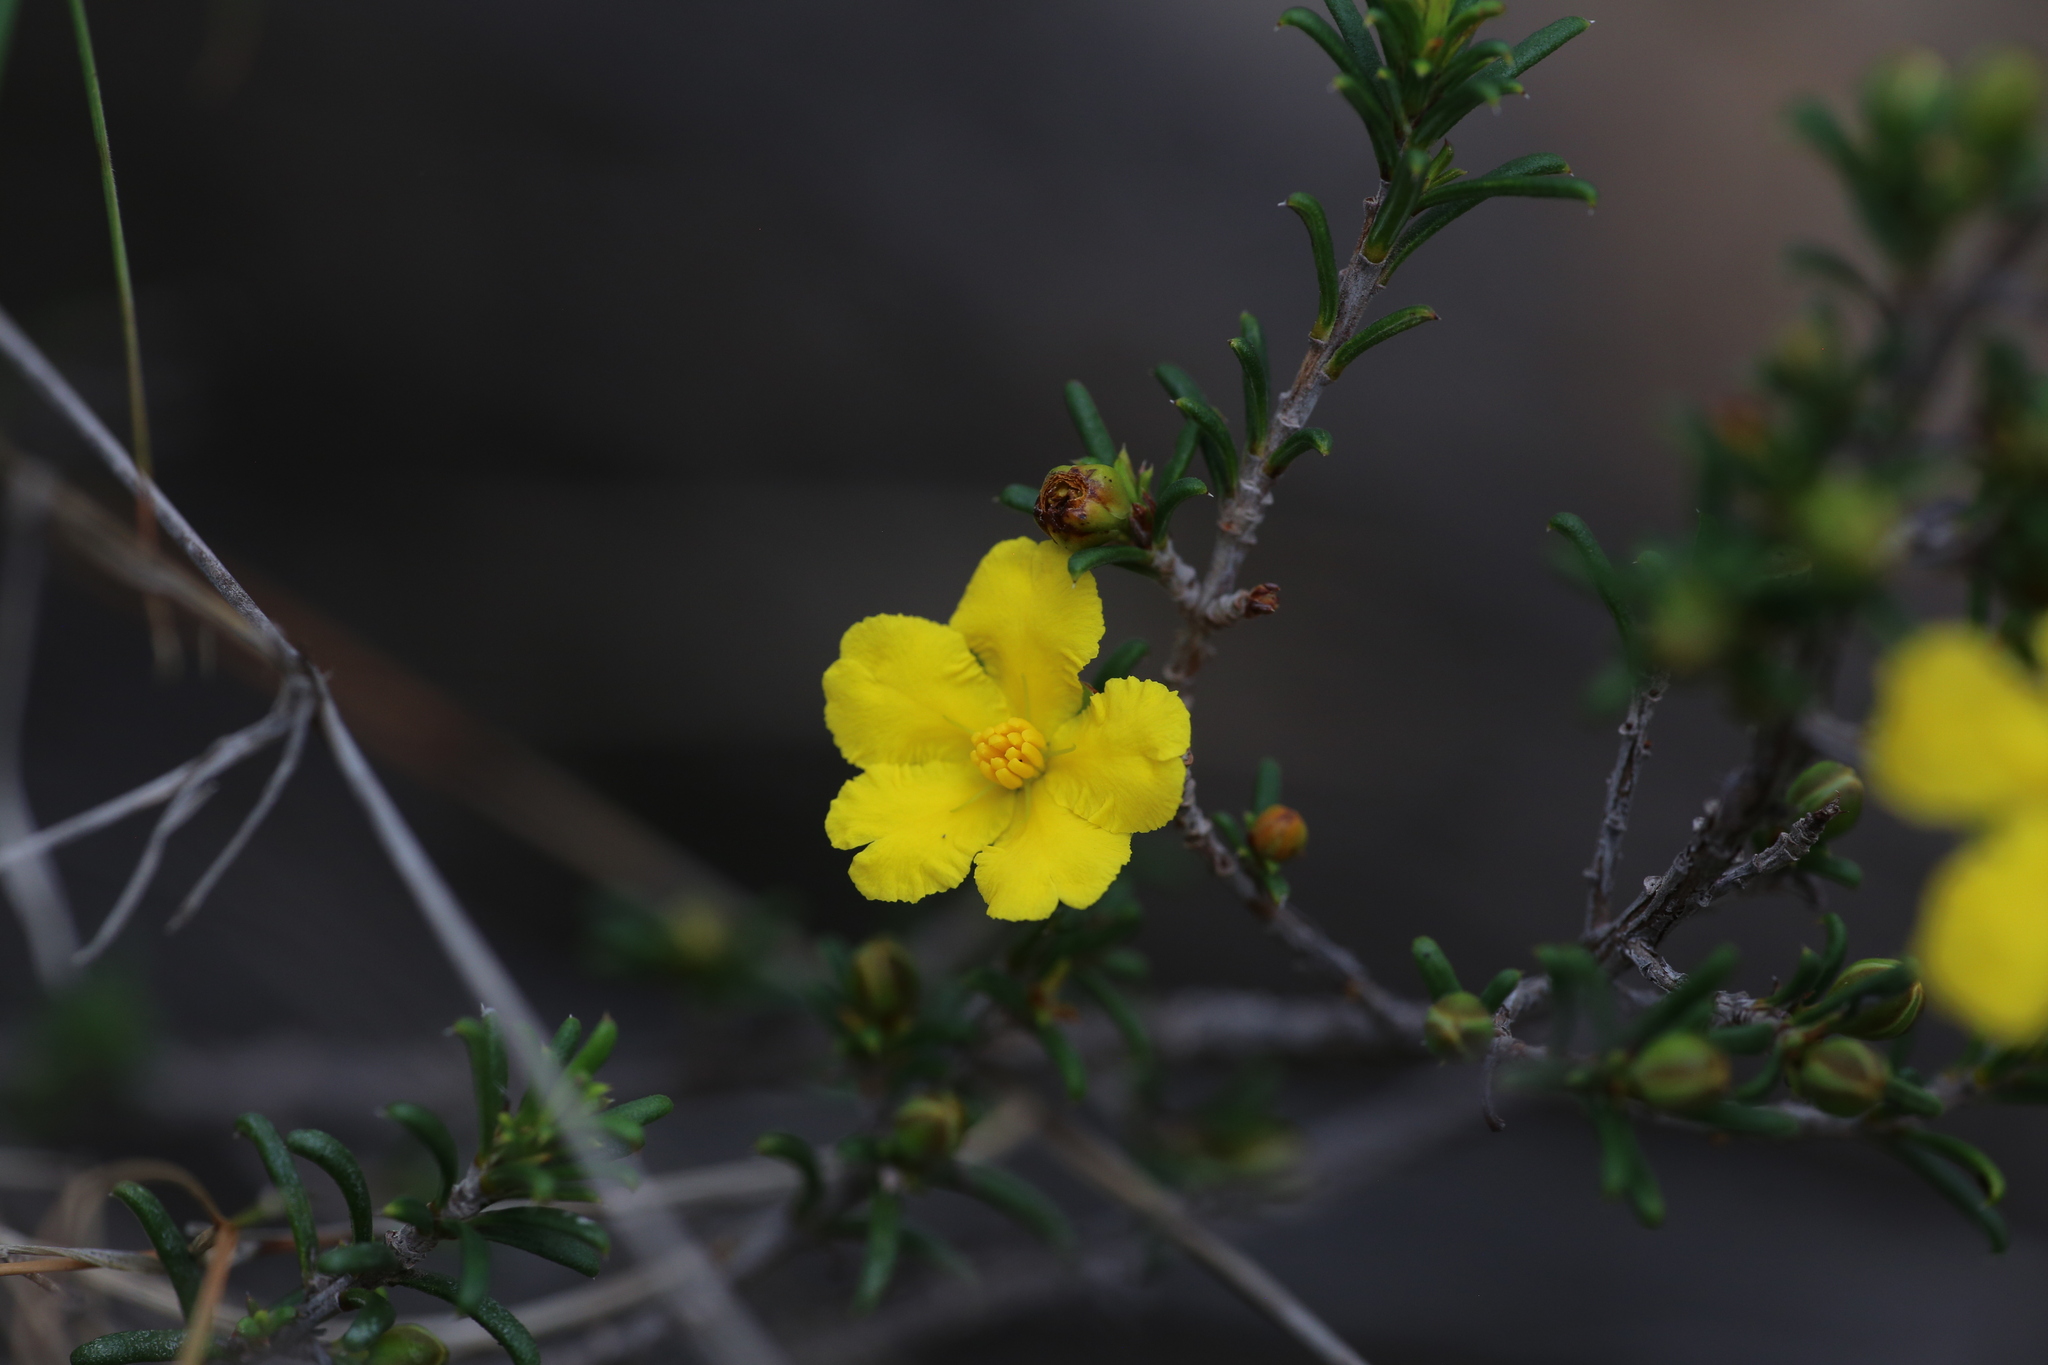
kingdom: Plantae
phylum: Tracheophyta
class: Magnoliopsida
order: Dilleniales
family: Dilleniaceae
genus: Hibbertia
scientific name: Hibbertia rostellata
